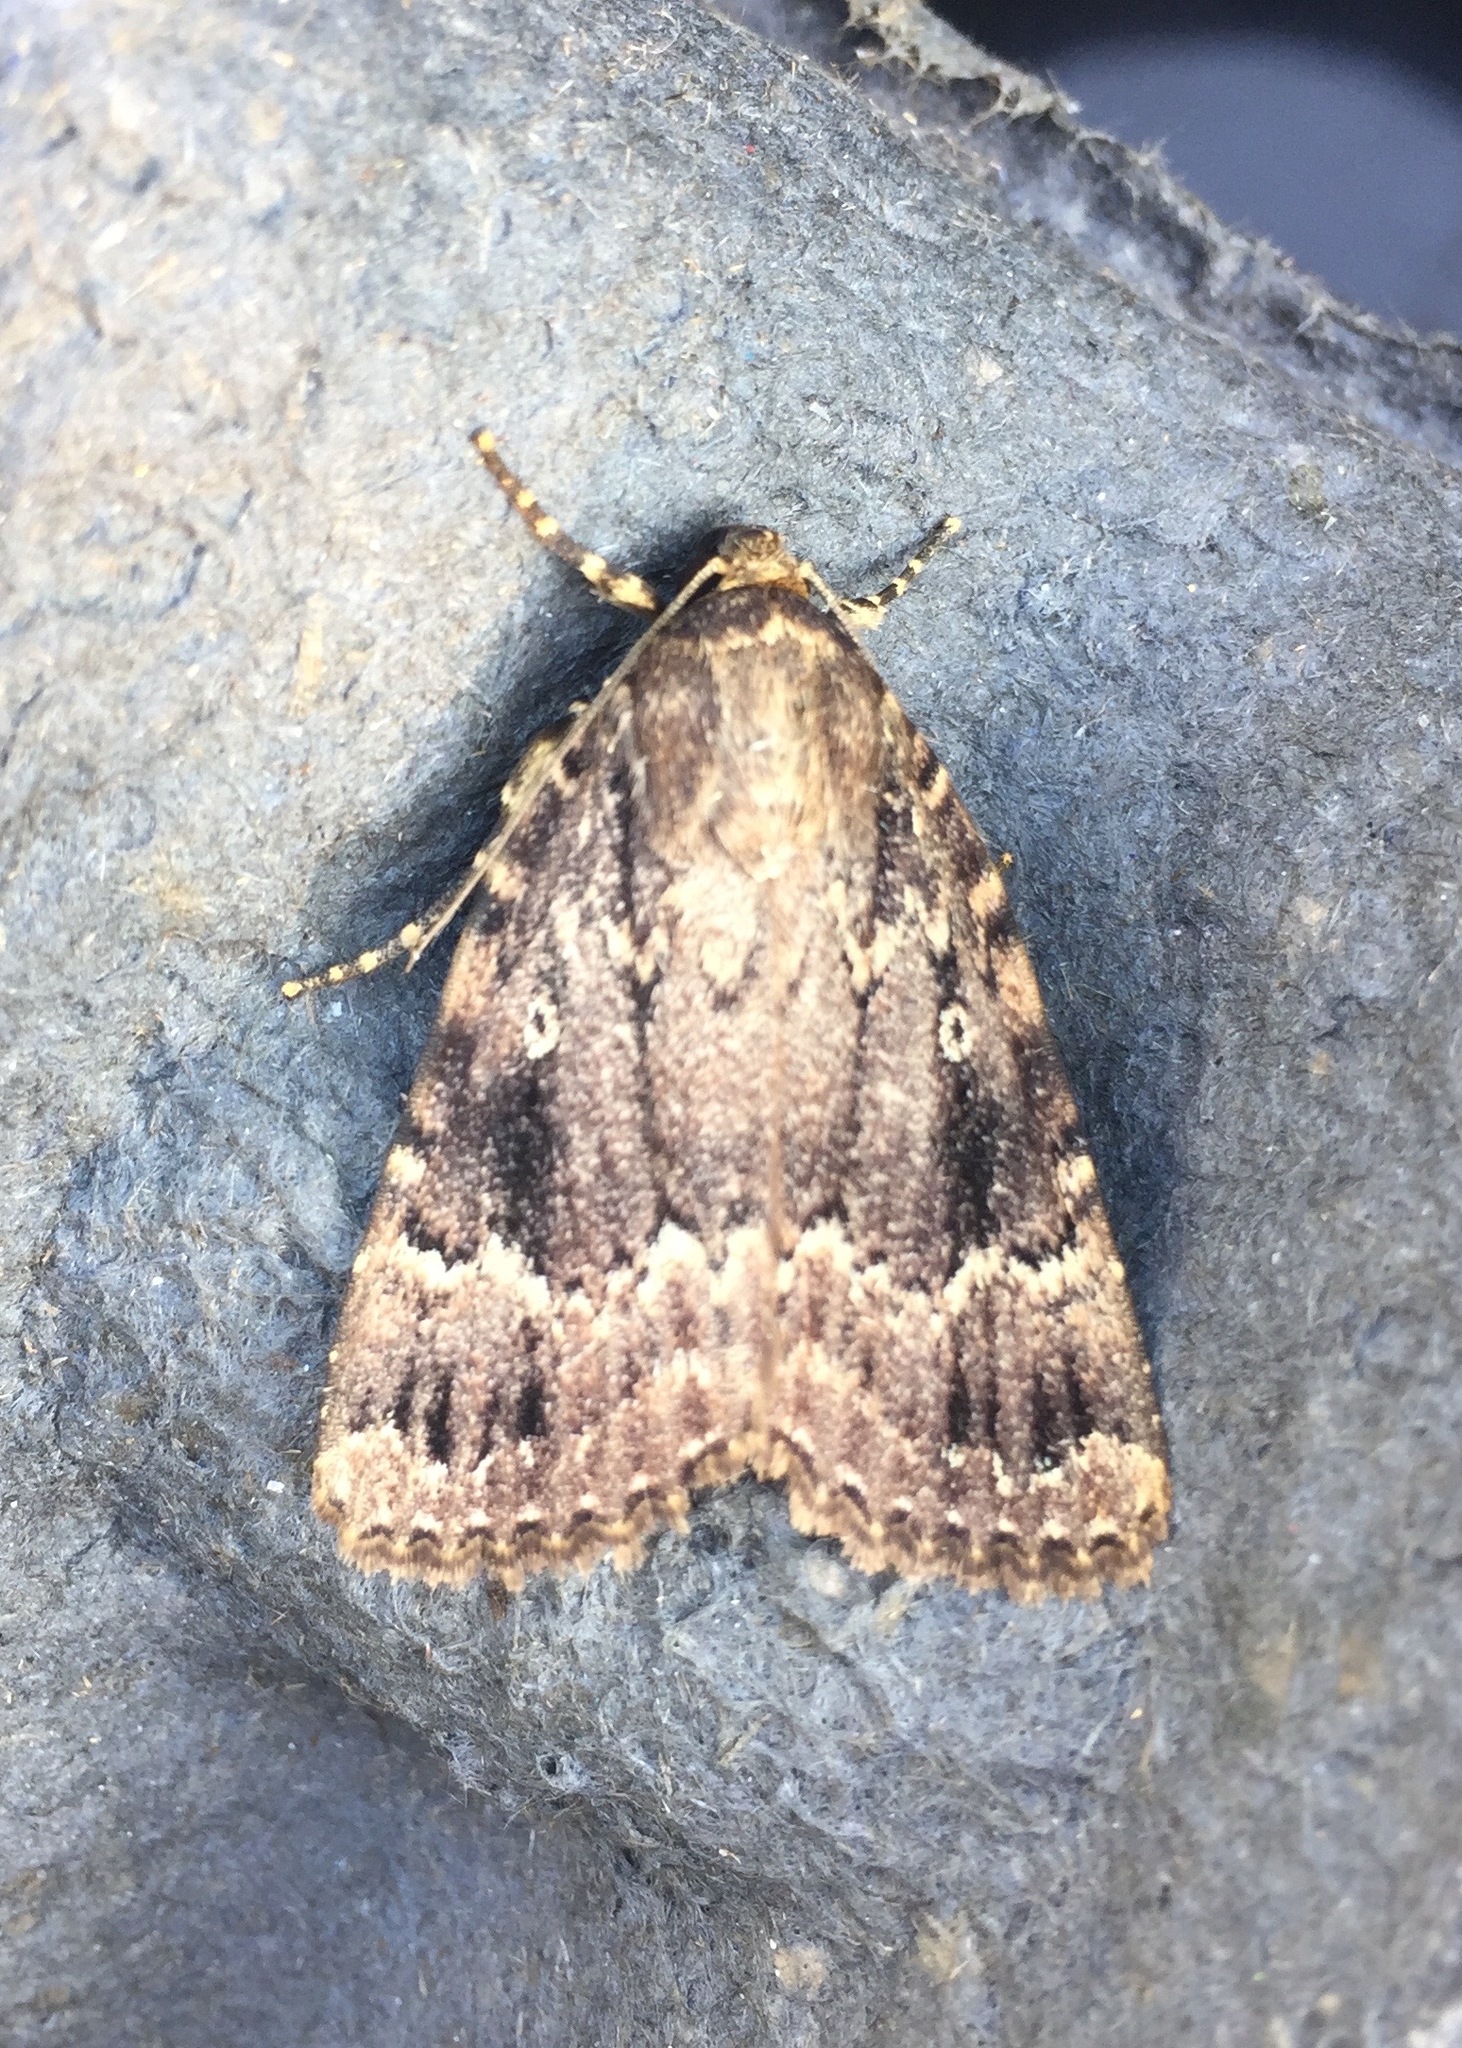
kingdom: Animalia
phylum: Arthropoda
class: Insecta
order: Lepidoptera
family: Noctuidae
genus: Amphipyra
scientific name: Amphipyra pyramidea
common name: Copper underwing
